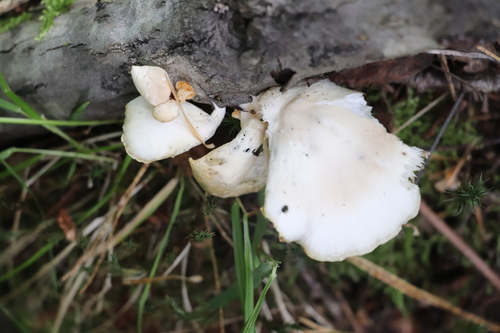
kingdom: Fungi
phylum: Basidiomycota
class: Agaricomycetes
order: Agaricales
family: Pleurotaceae
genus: Pleurotus
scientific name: Pleurotus pulmonarius
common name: Pale oyster
